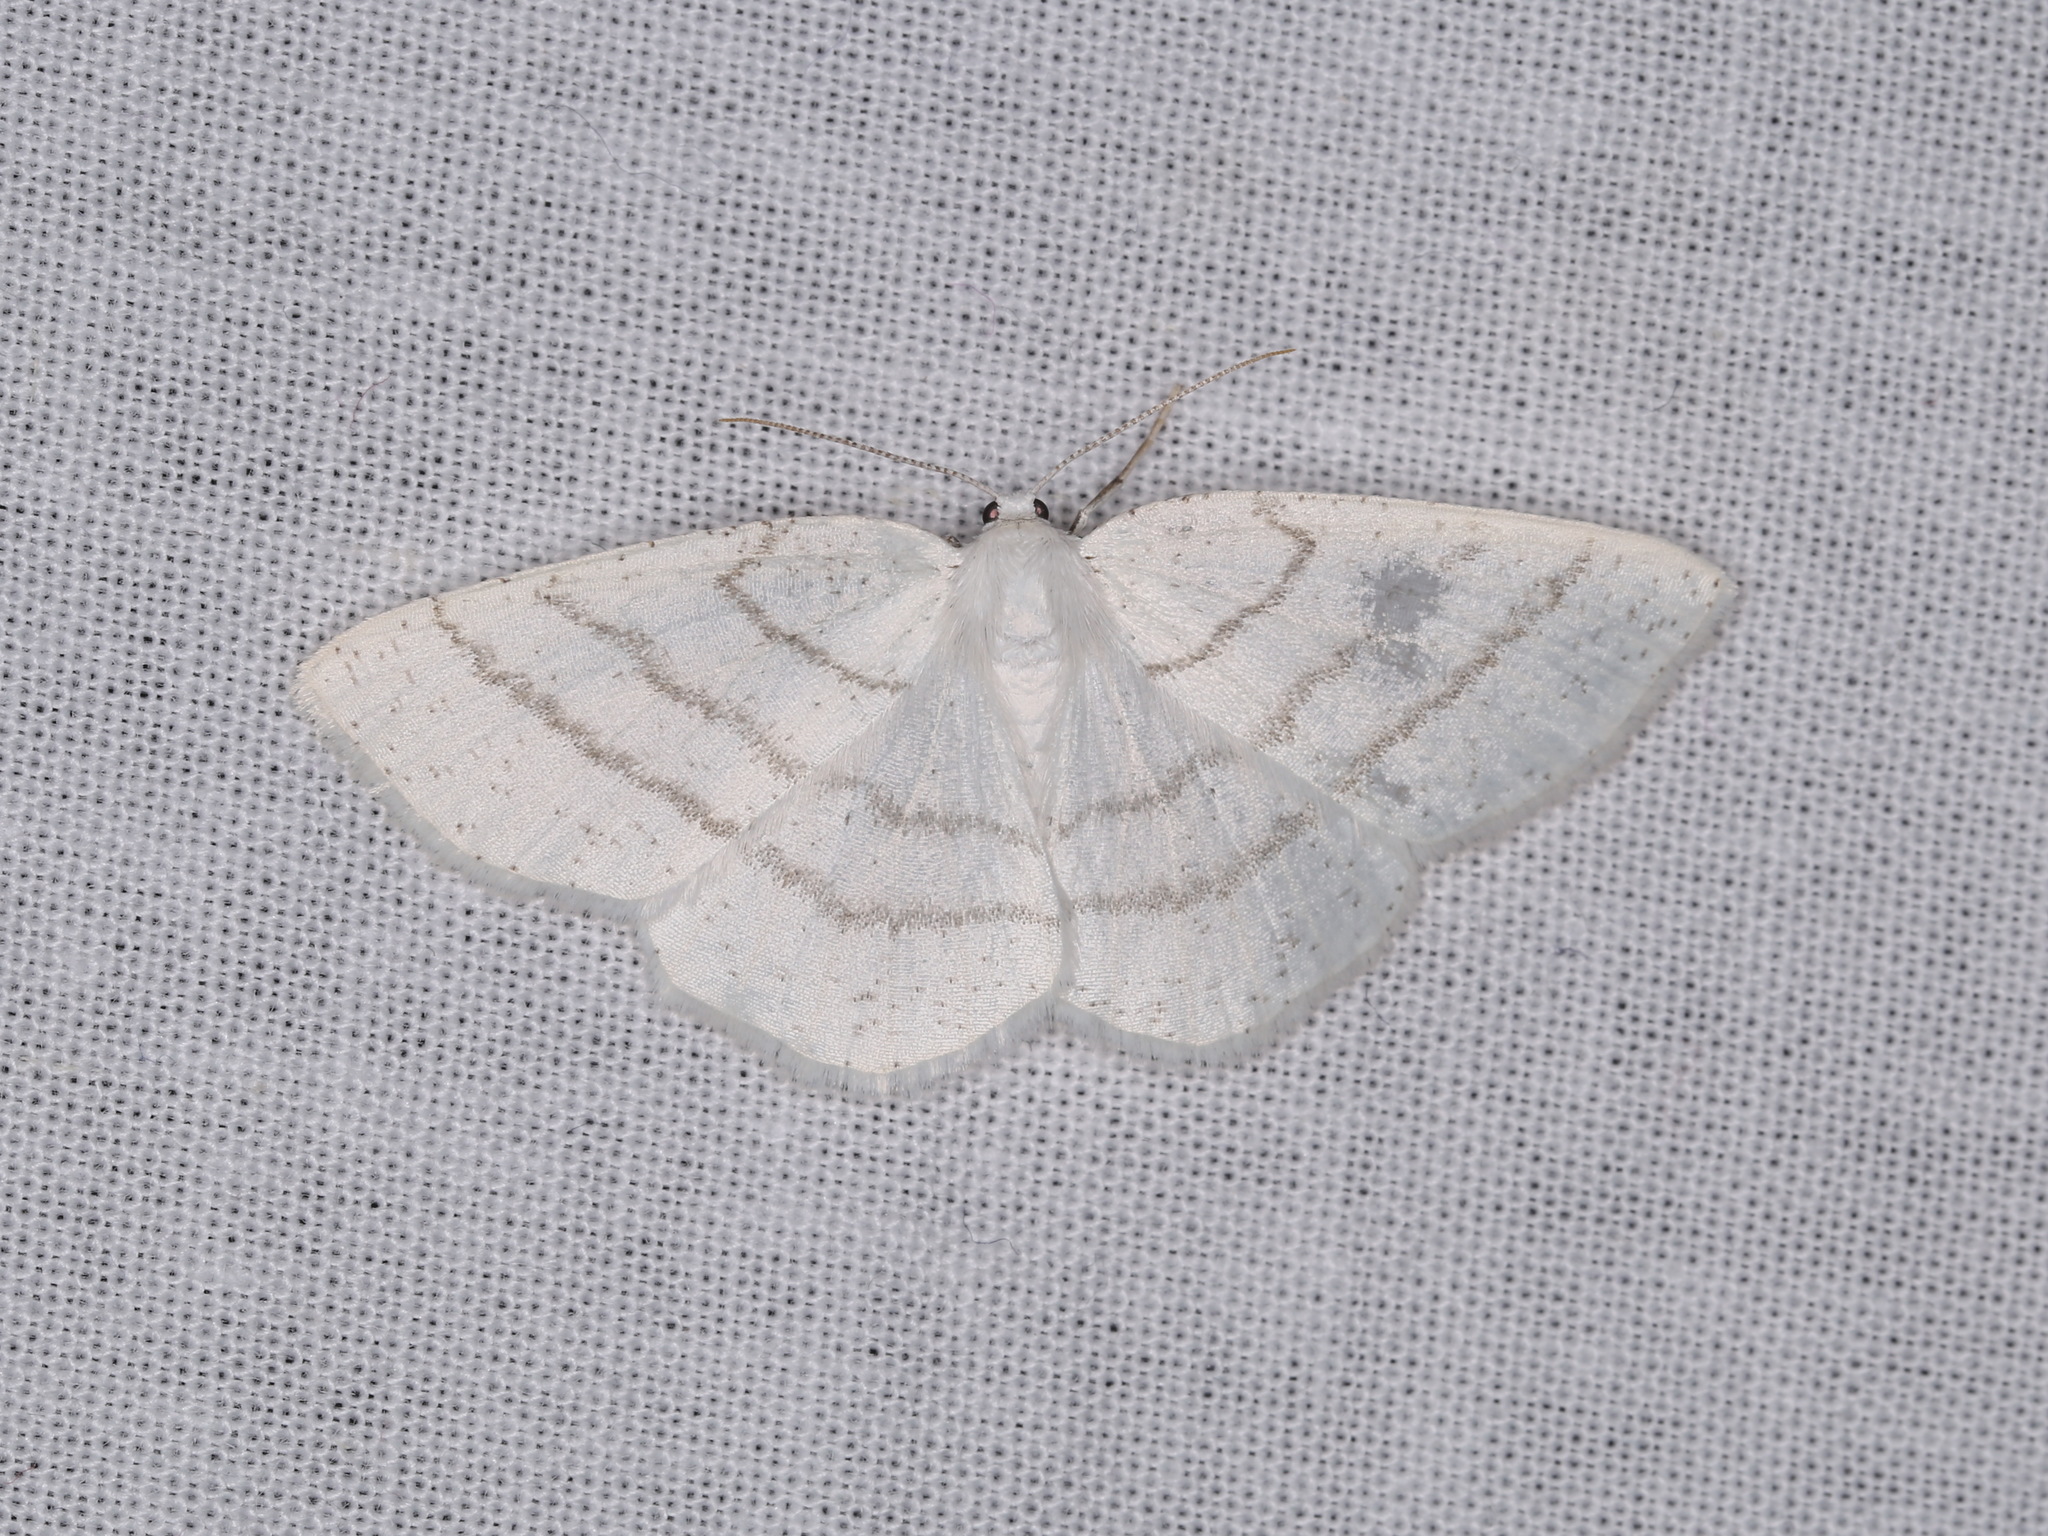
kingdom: Animalia
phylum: Arthropoda
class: Insecta
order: Lepidoptera
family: Geometridae
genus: Cabera
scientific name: Cabera pusaria
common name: Common white wave
